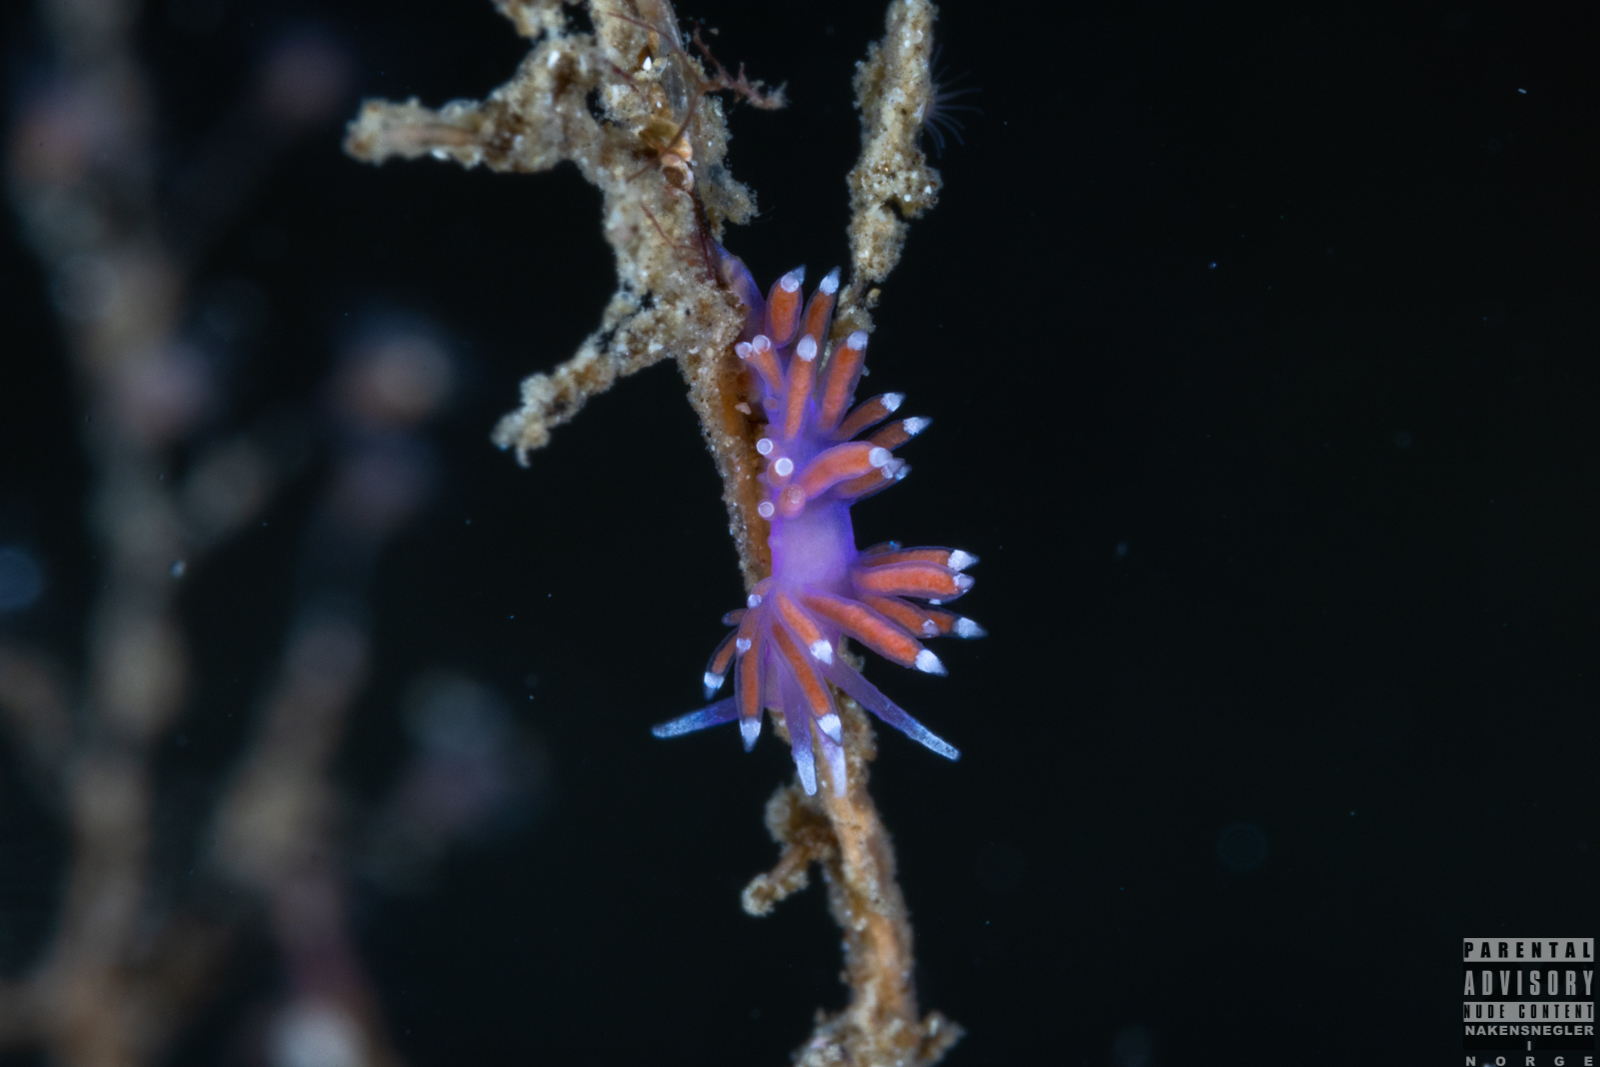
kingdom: Animalia
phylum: Mollusca
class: Gastropoda
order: Nudibranchia
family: Flabellinidae
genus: Edmundsella
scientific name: Edmundsella pedata
